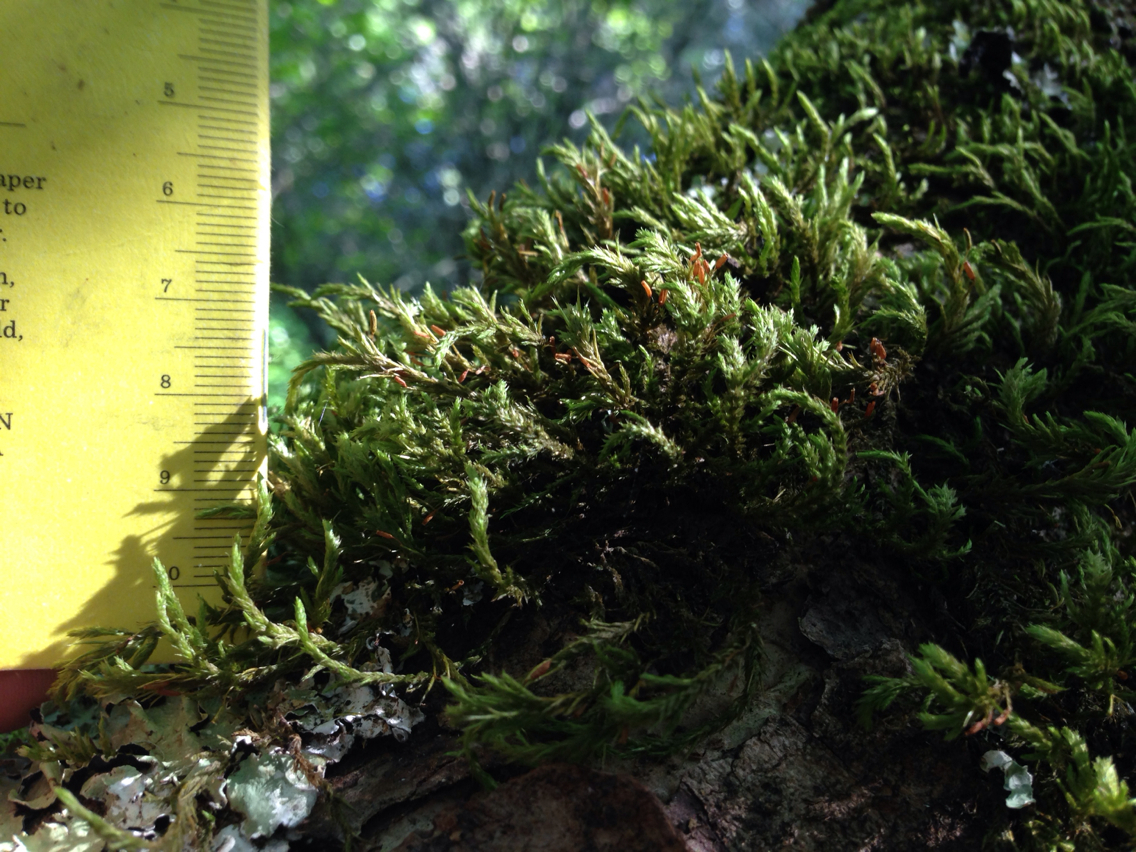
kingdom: Plantae
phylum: Bryophyta
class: Bryopsida
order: Hypnales
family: Neckeraceae
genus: Neckera
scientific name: Neckera californica
